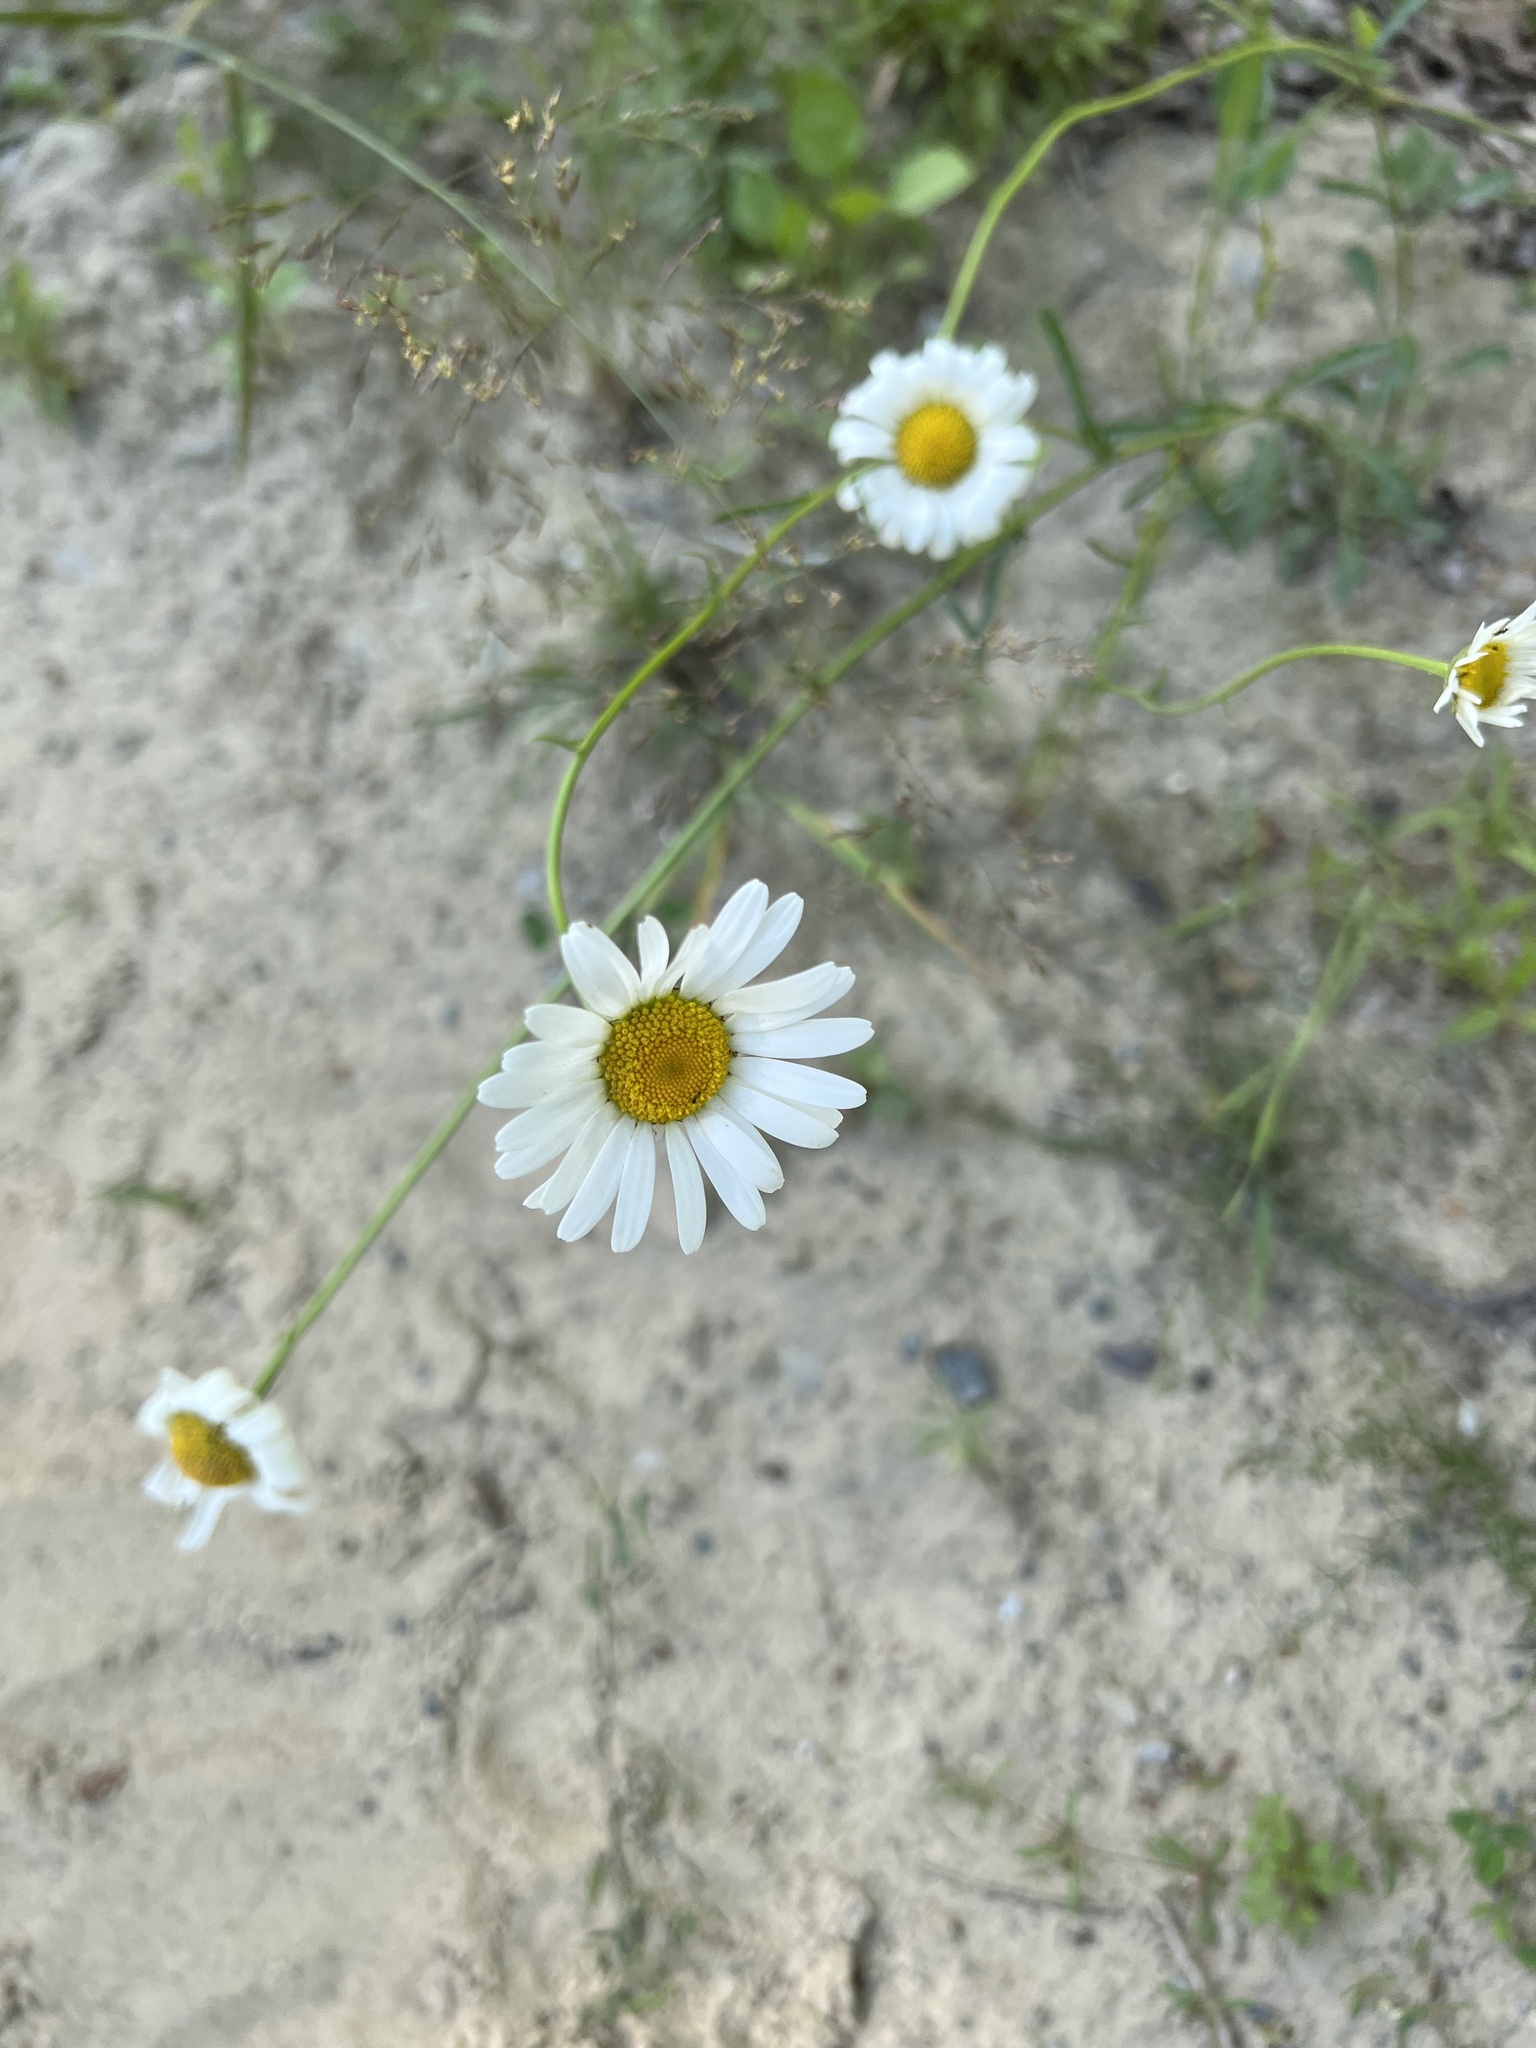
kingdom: Plantae
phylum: Tracheophyta
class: Magnoliopsida
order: Asterales
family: Asteraceae
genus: Leucanthemum
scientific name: Leucanthemum vulgare
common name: Oxeye daisy
